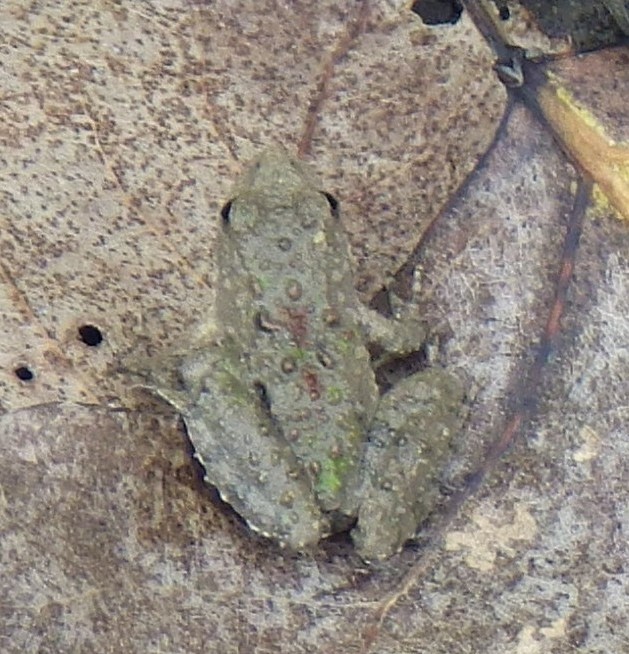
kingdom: Animalia
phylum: Chordata
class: Amphibia
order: Anura
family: Hylidae
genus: Acris
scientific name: Acris blanchardi
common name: Blanchard's cricket frog
